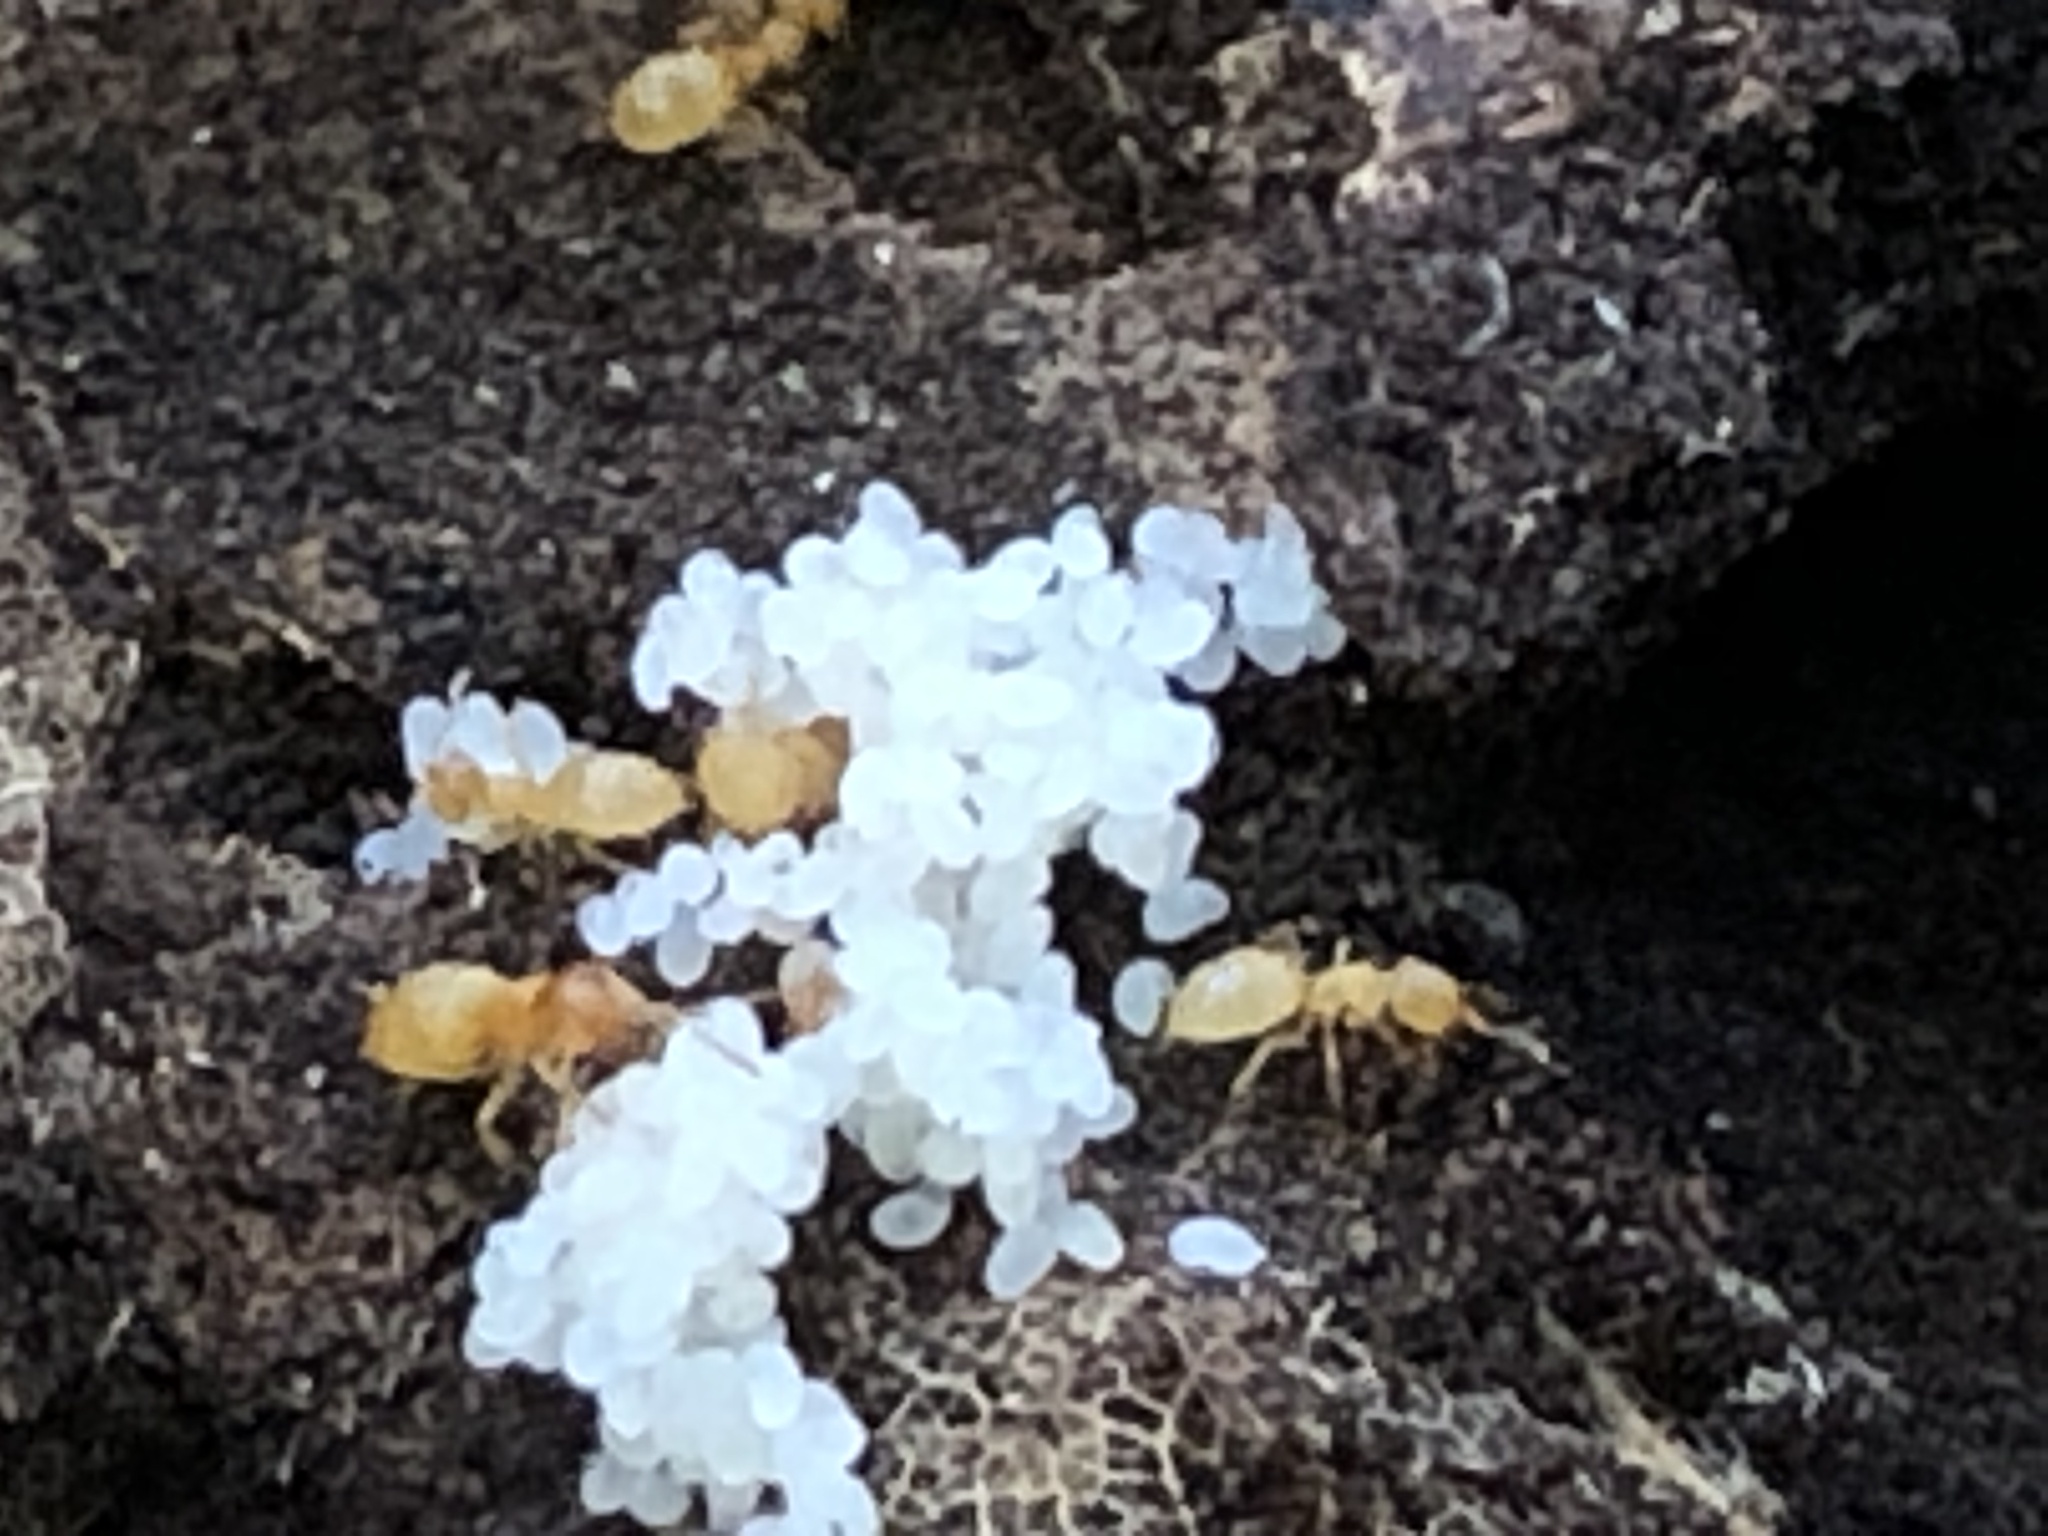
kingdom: Animalia
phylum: Arthropoda
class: Insecta
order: Hymenoptera
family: Formicidae
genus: Lasius
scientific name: Lasius nearcticus
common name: New world fuzzy ant
